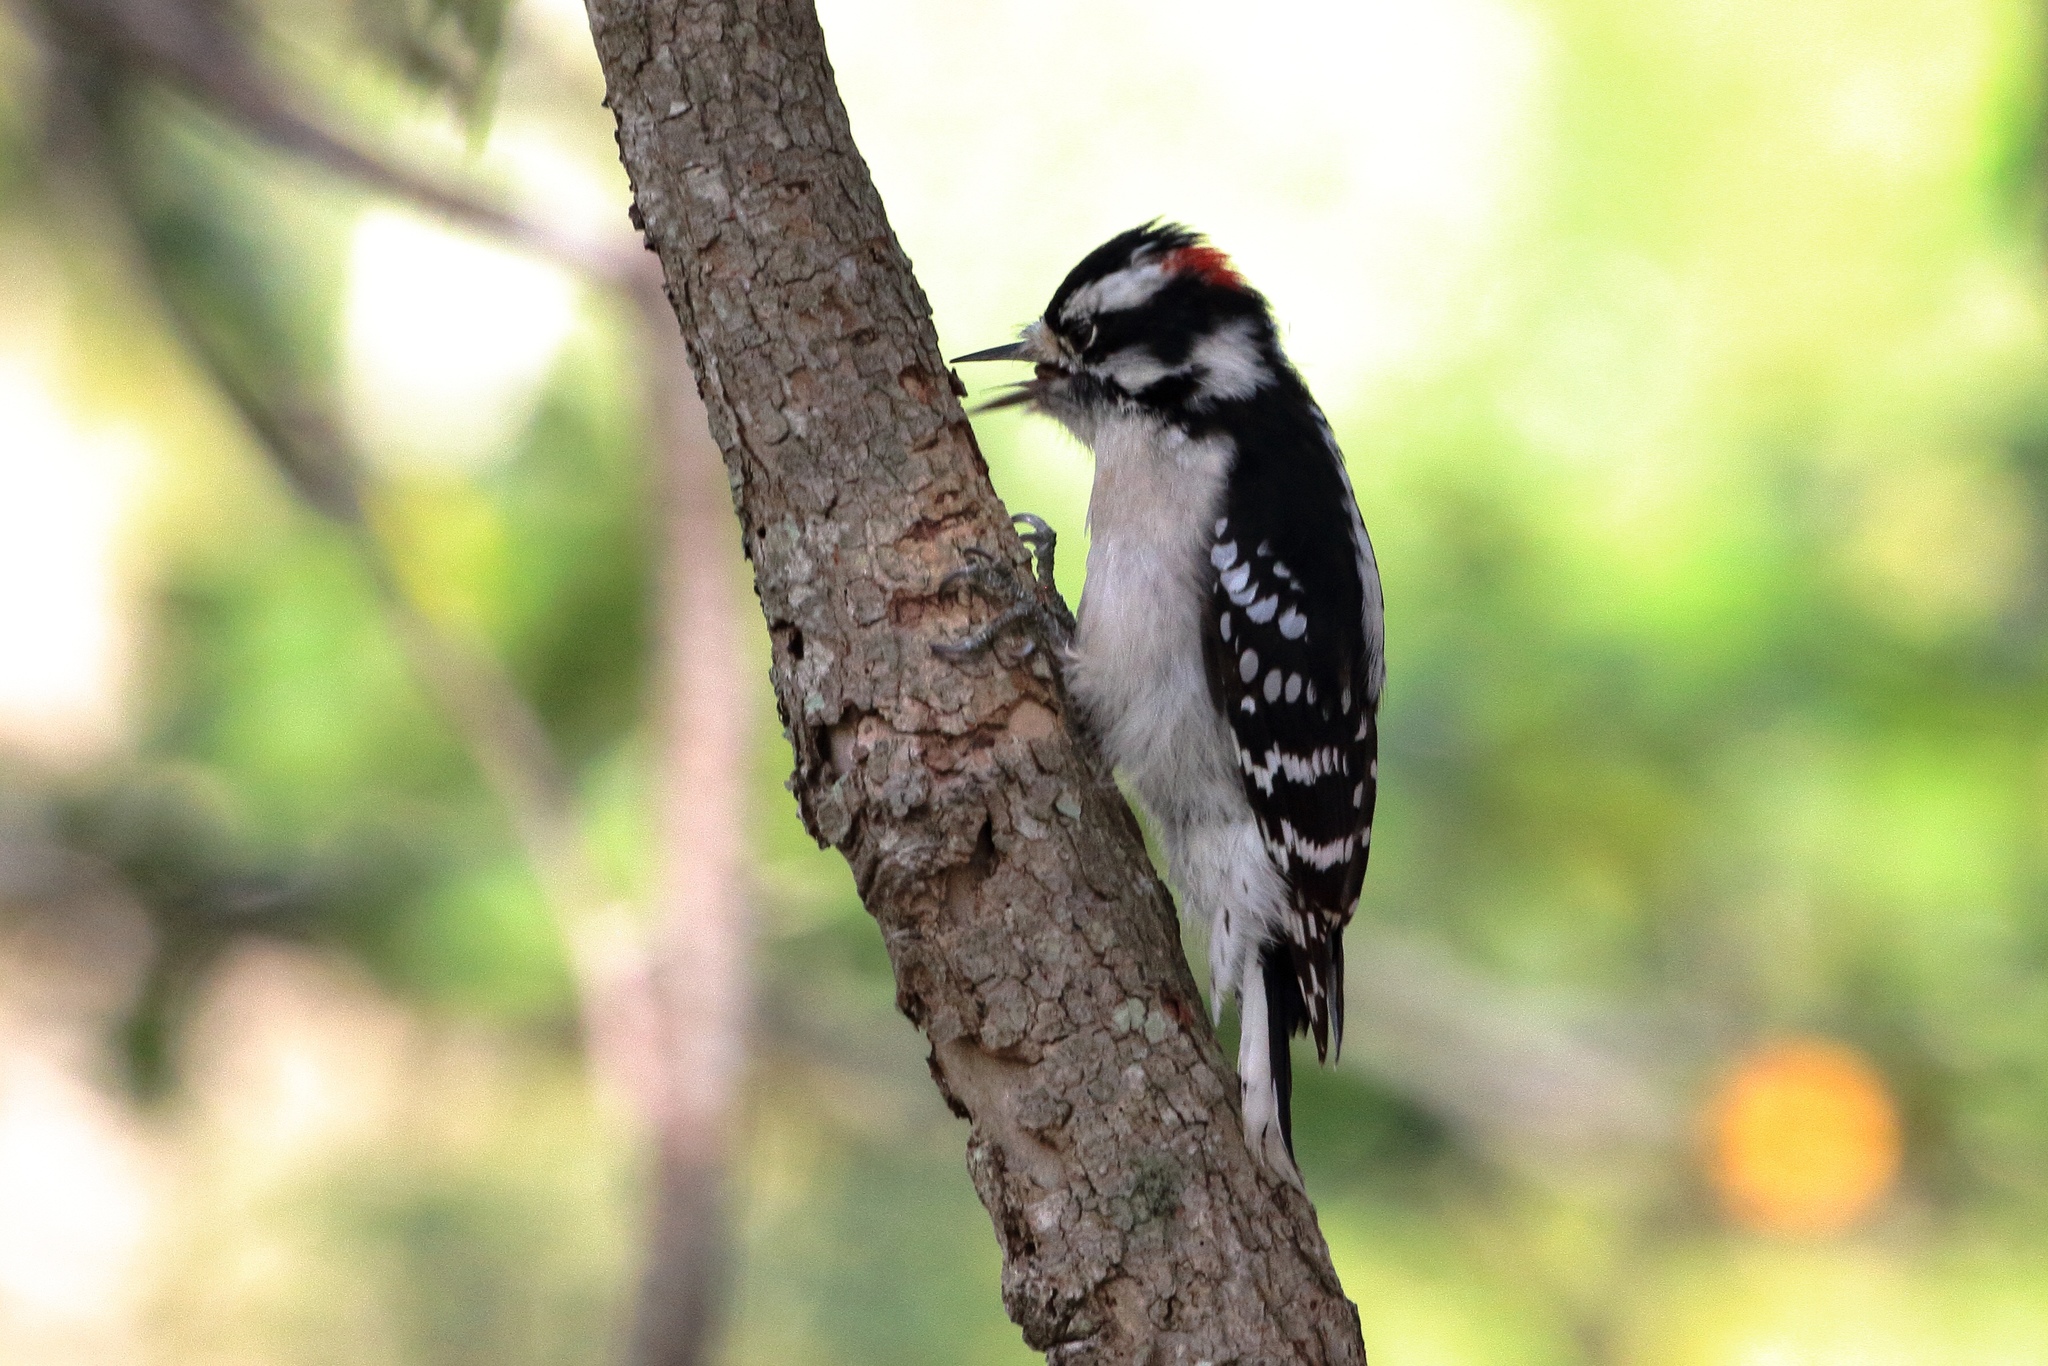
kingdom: Animalia
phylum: Chordata
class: Aves
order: Piciformes
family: Picidae
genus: Dryobates
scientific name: Dryobates pubescens
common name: Downy woodpecker
